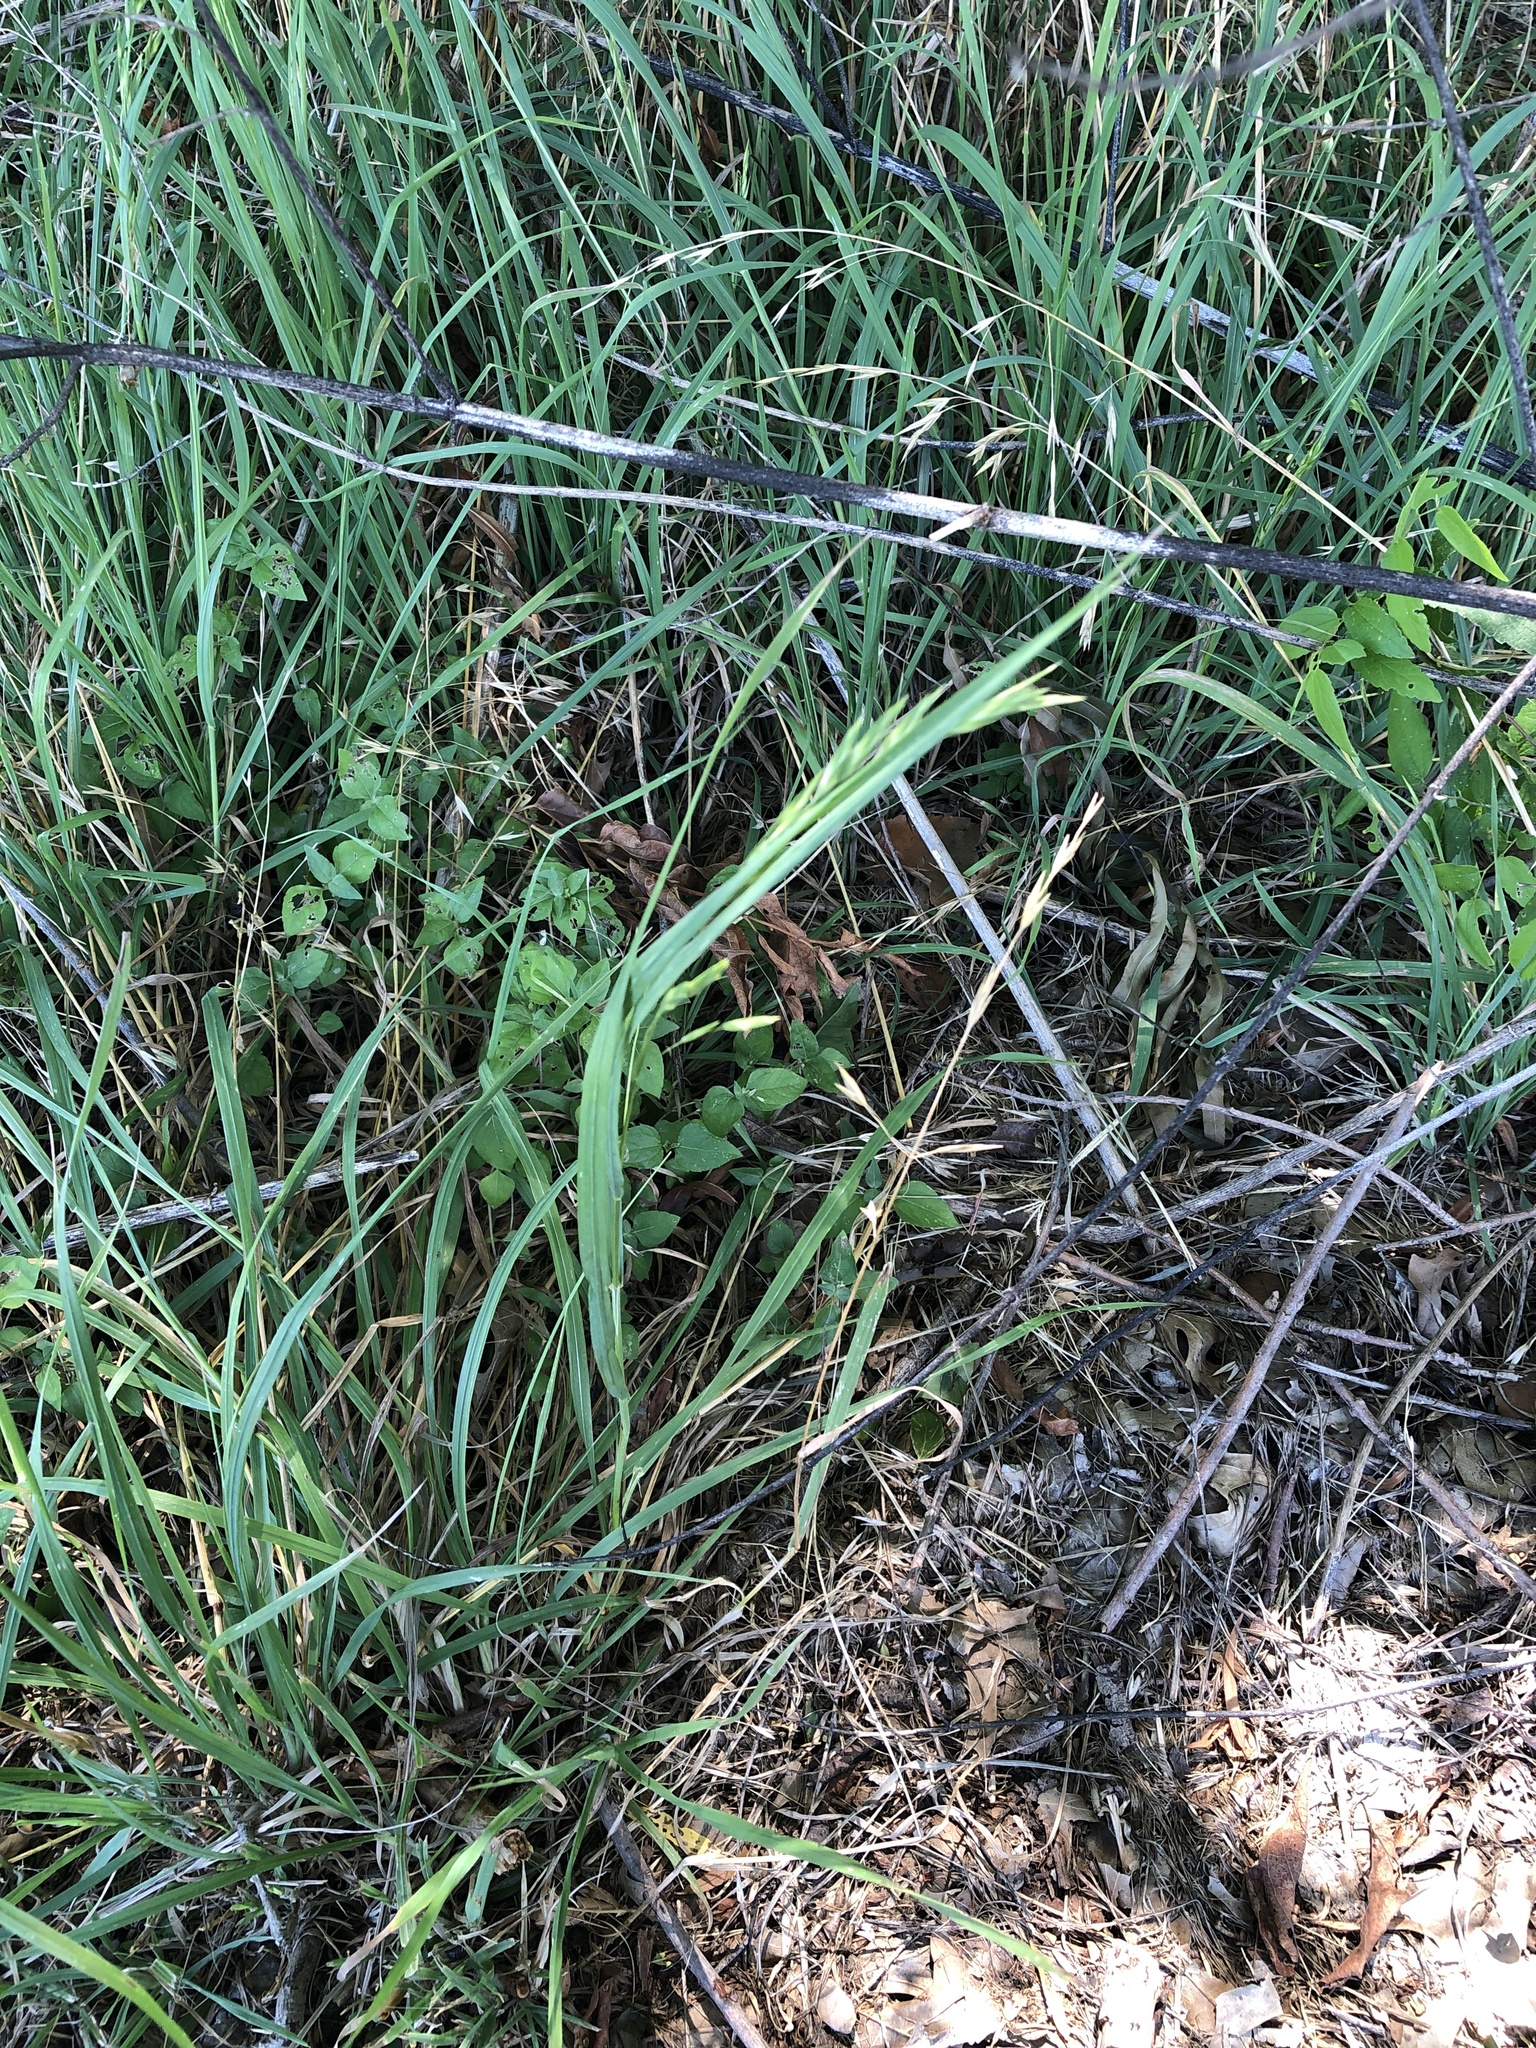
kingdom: Plantae
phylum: Tracheophyta
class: Liliopsida
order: Poales
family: Poaceae
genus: Bromus
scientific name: Bromus catharticus
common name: Rescuegrass
